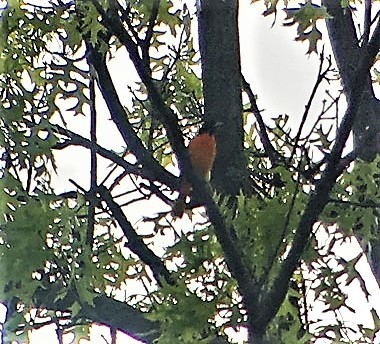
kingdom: Animalia
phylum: Chordata
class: Aves
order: Passeriformes
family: Icteridae
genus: Icterus
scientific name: Icterus galbula
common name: Baltimore oriole
